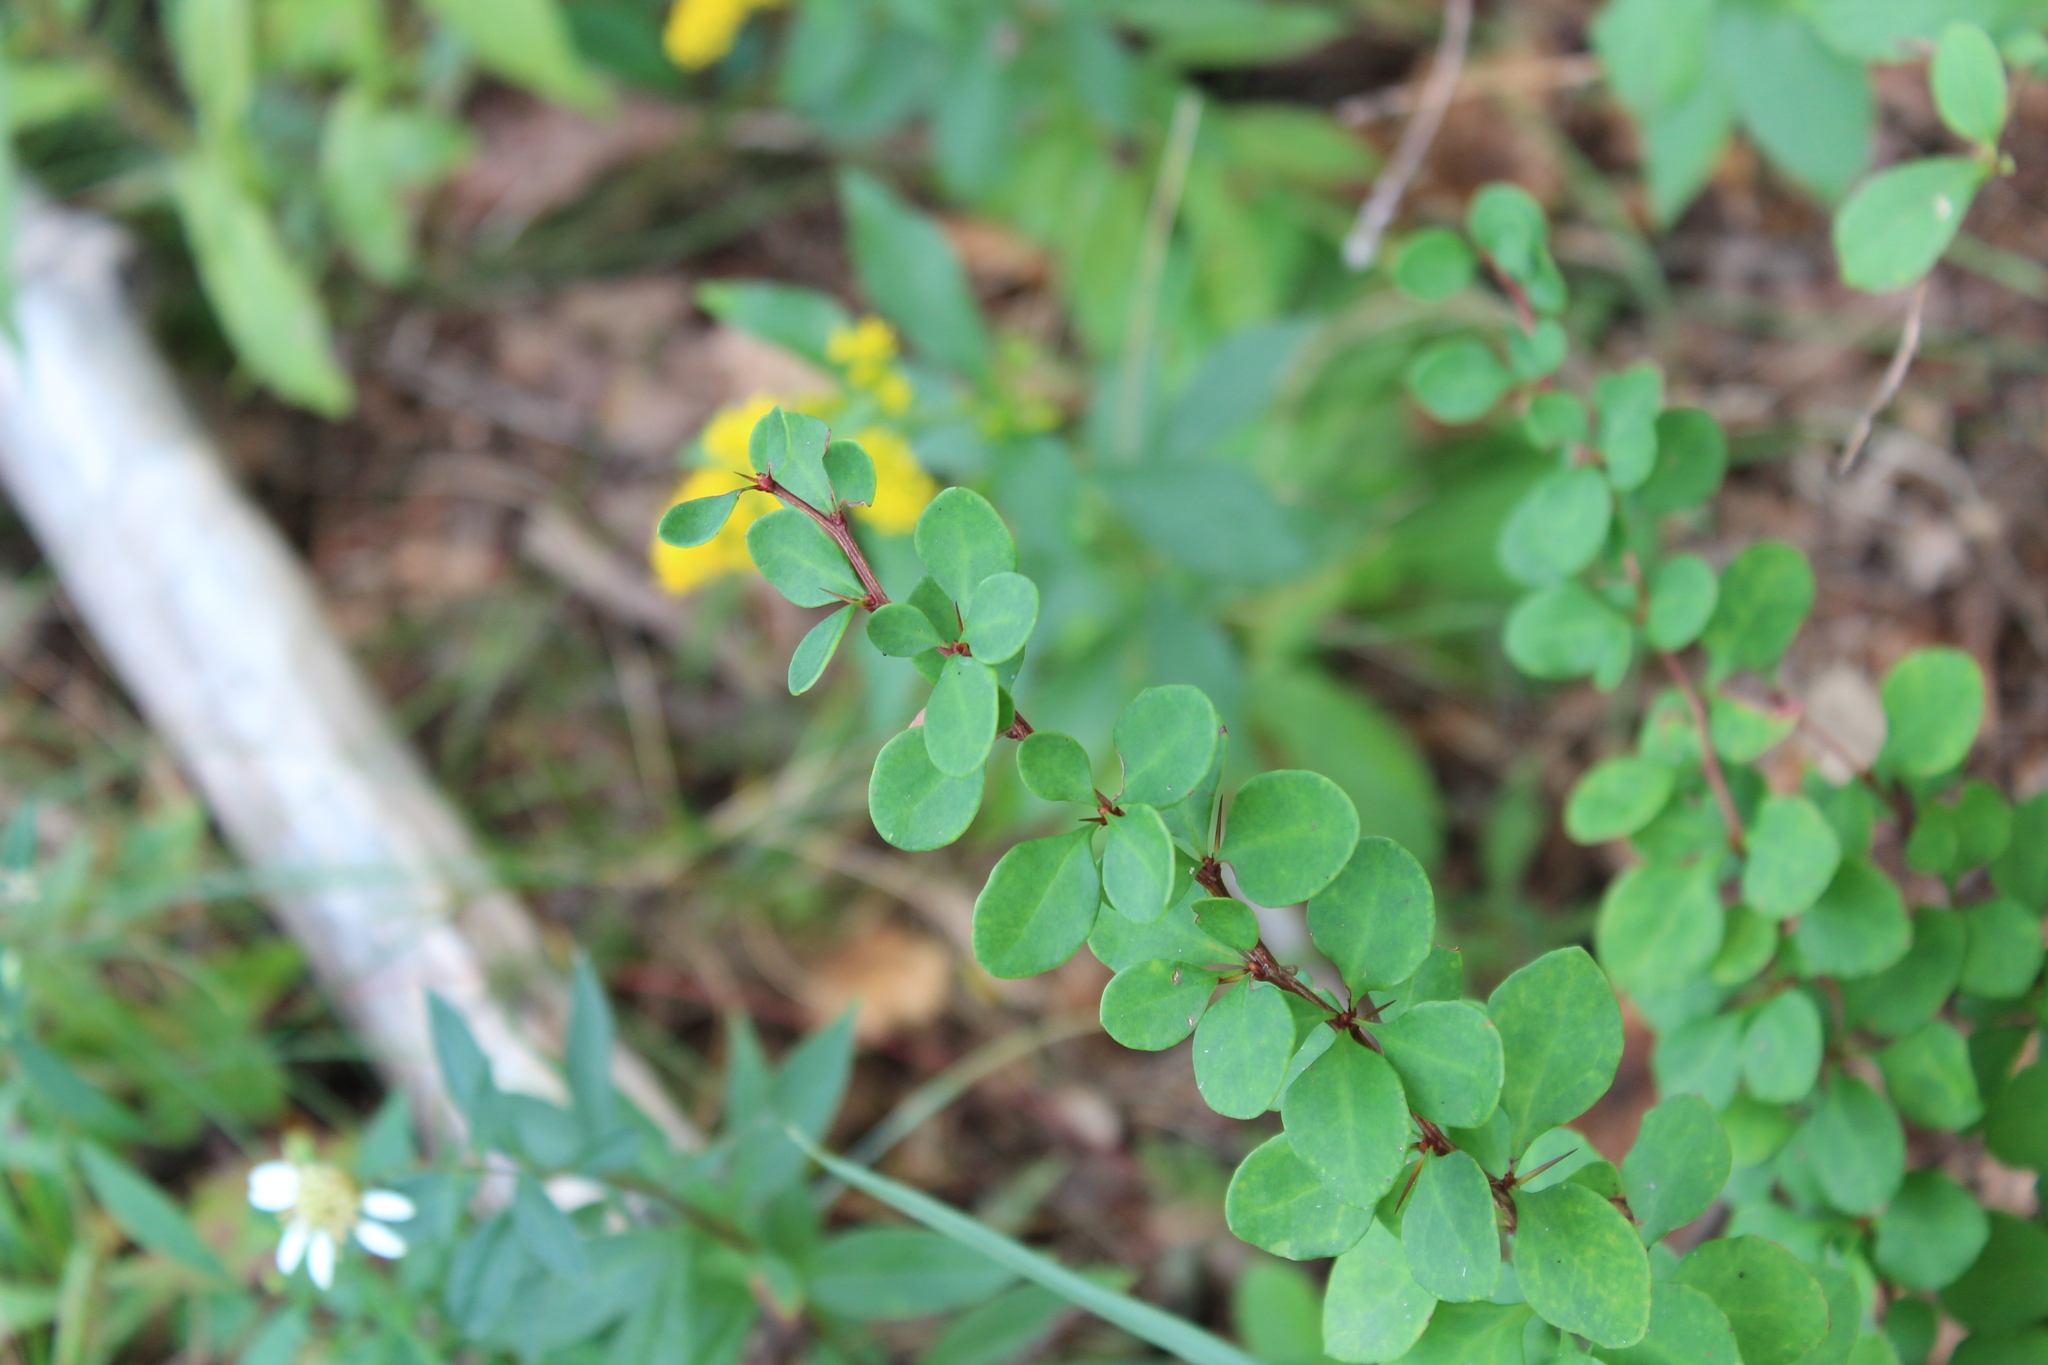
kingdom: Plantae
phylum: Tracheophyta
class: Magnoliopsida
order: Ranunculales
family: Berberidaceae
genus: Berberis
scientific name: Berberis thunbergii
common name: Japanese barberry
